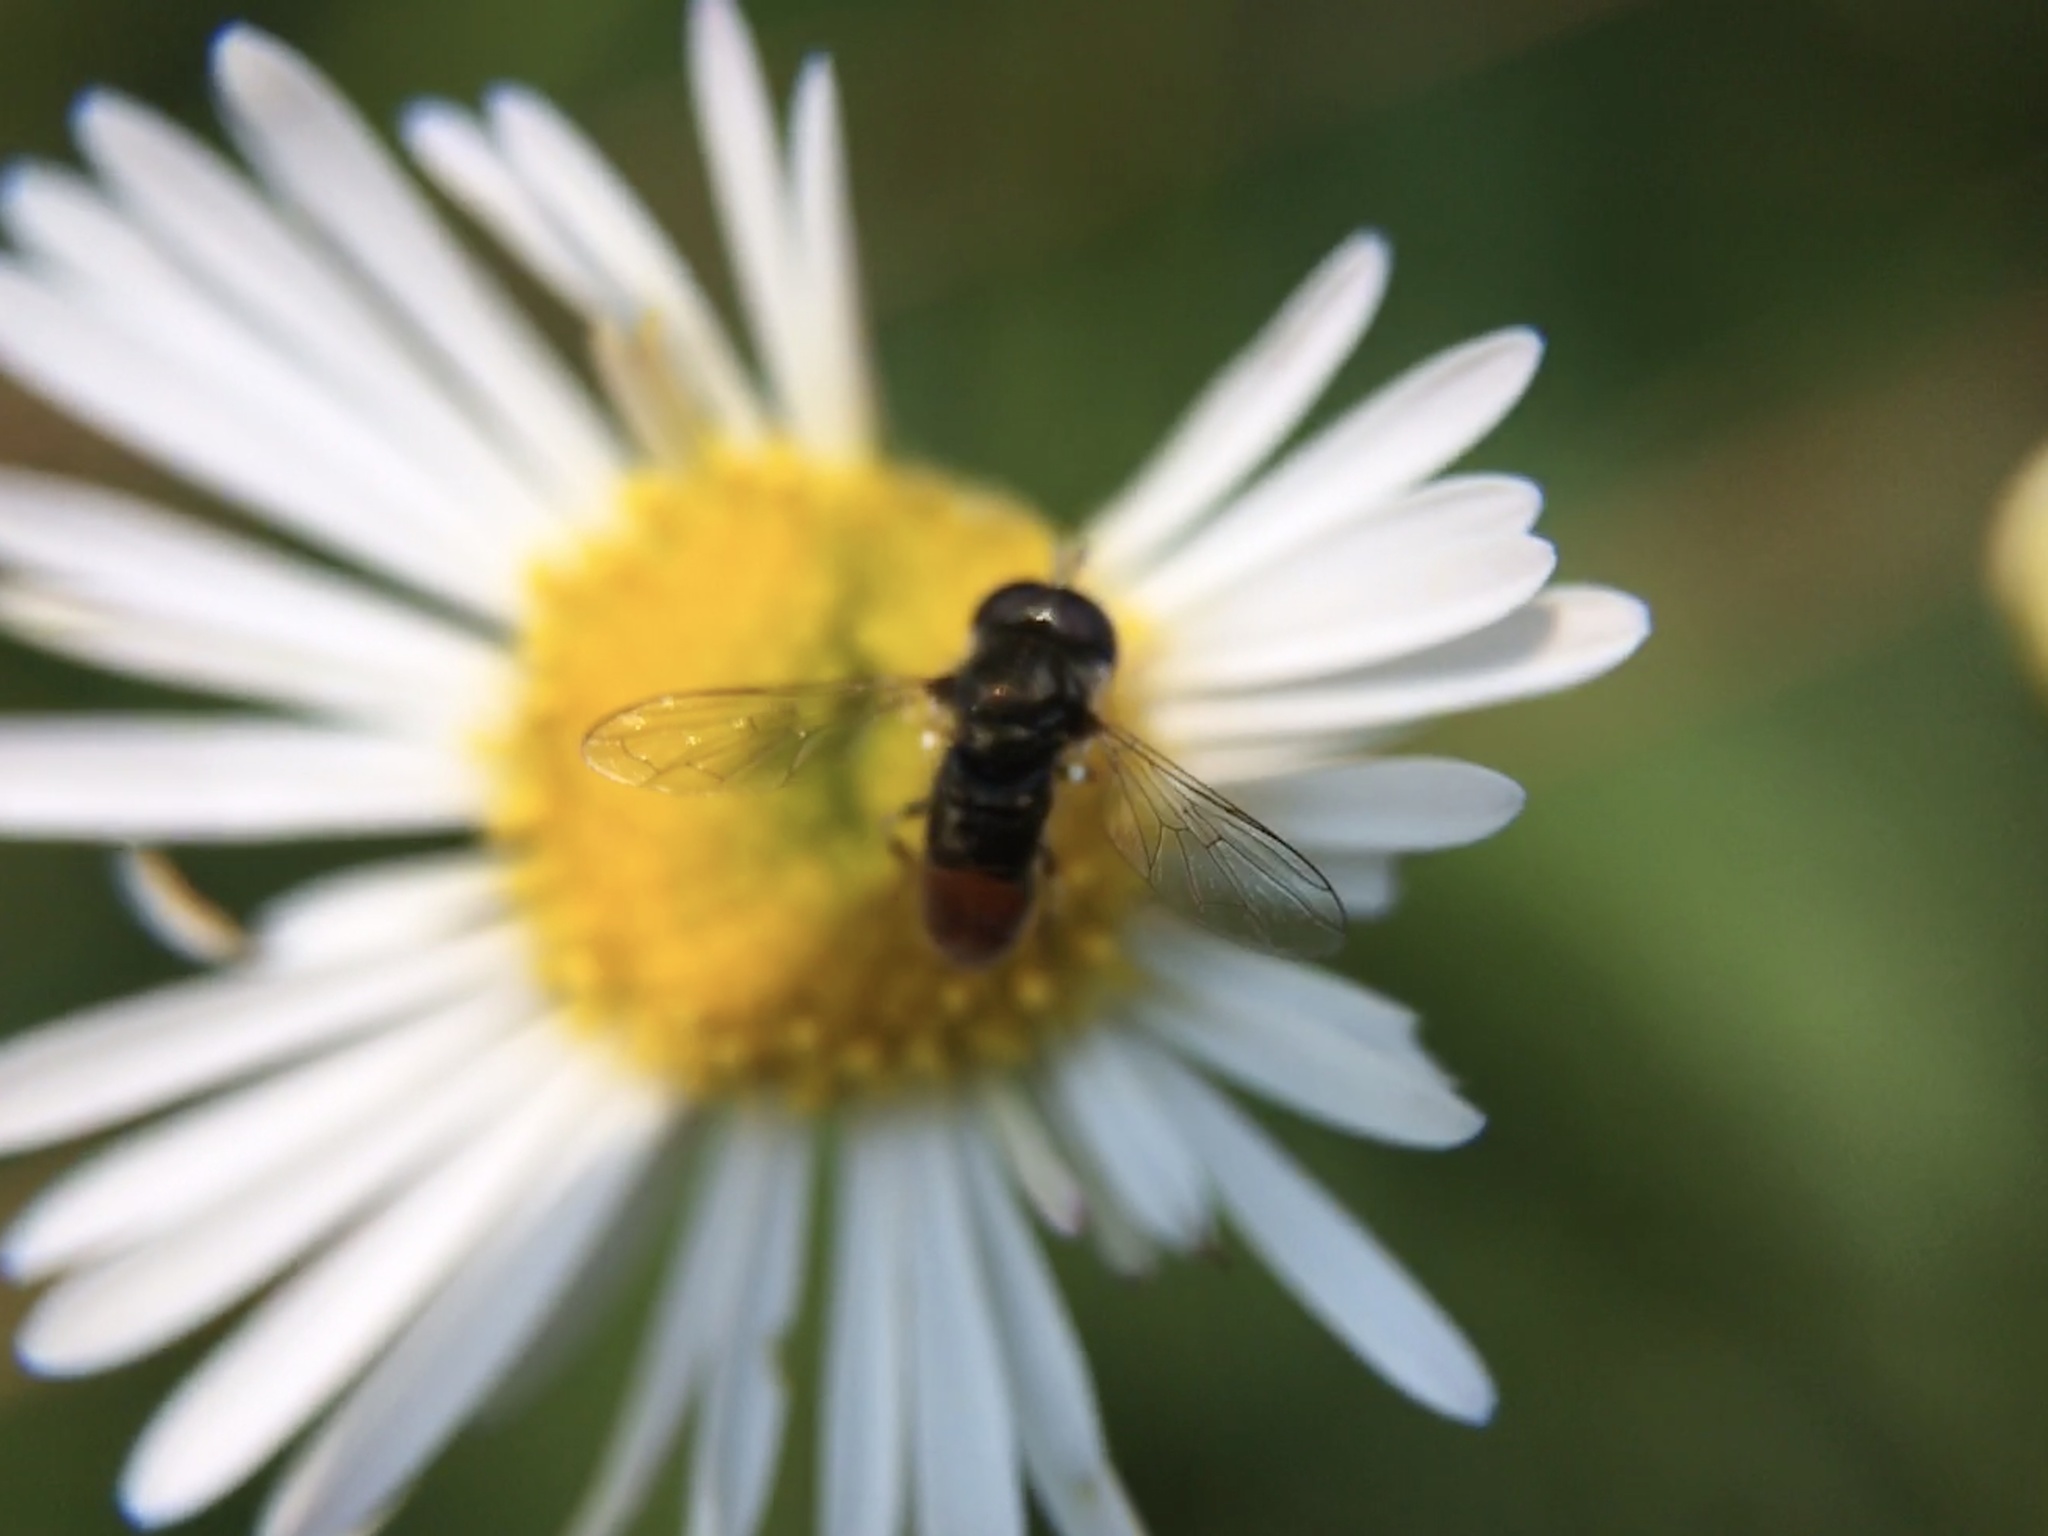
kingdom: Animalia
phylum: Arthropoda
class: Insecta
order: Diptera
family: Syrphidae
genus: Paragus
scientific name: Paragus haemorrhous
